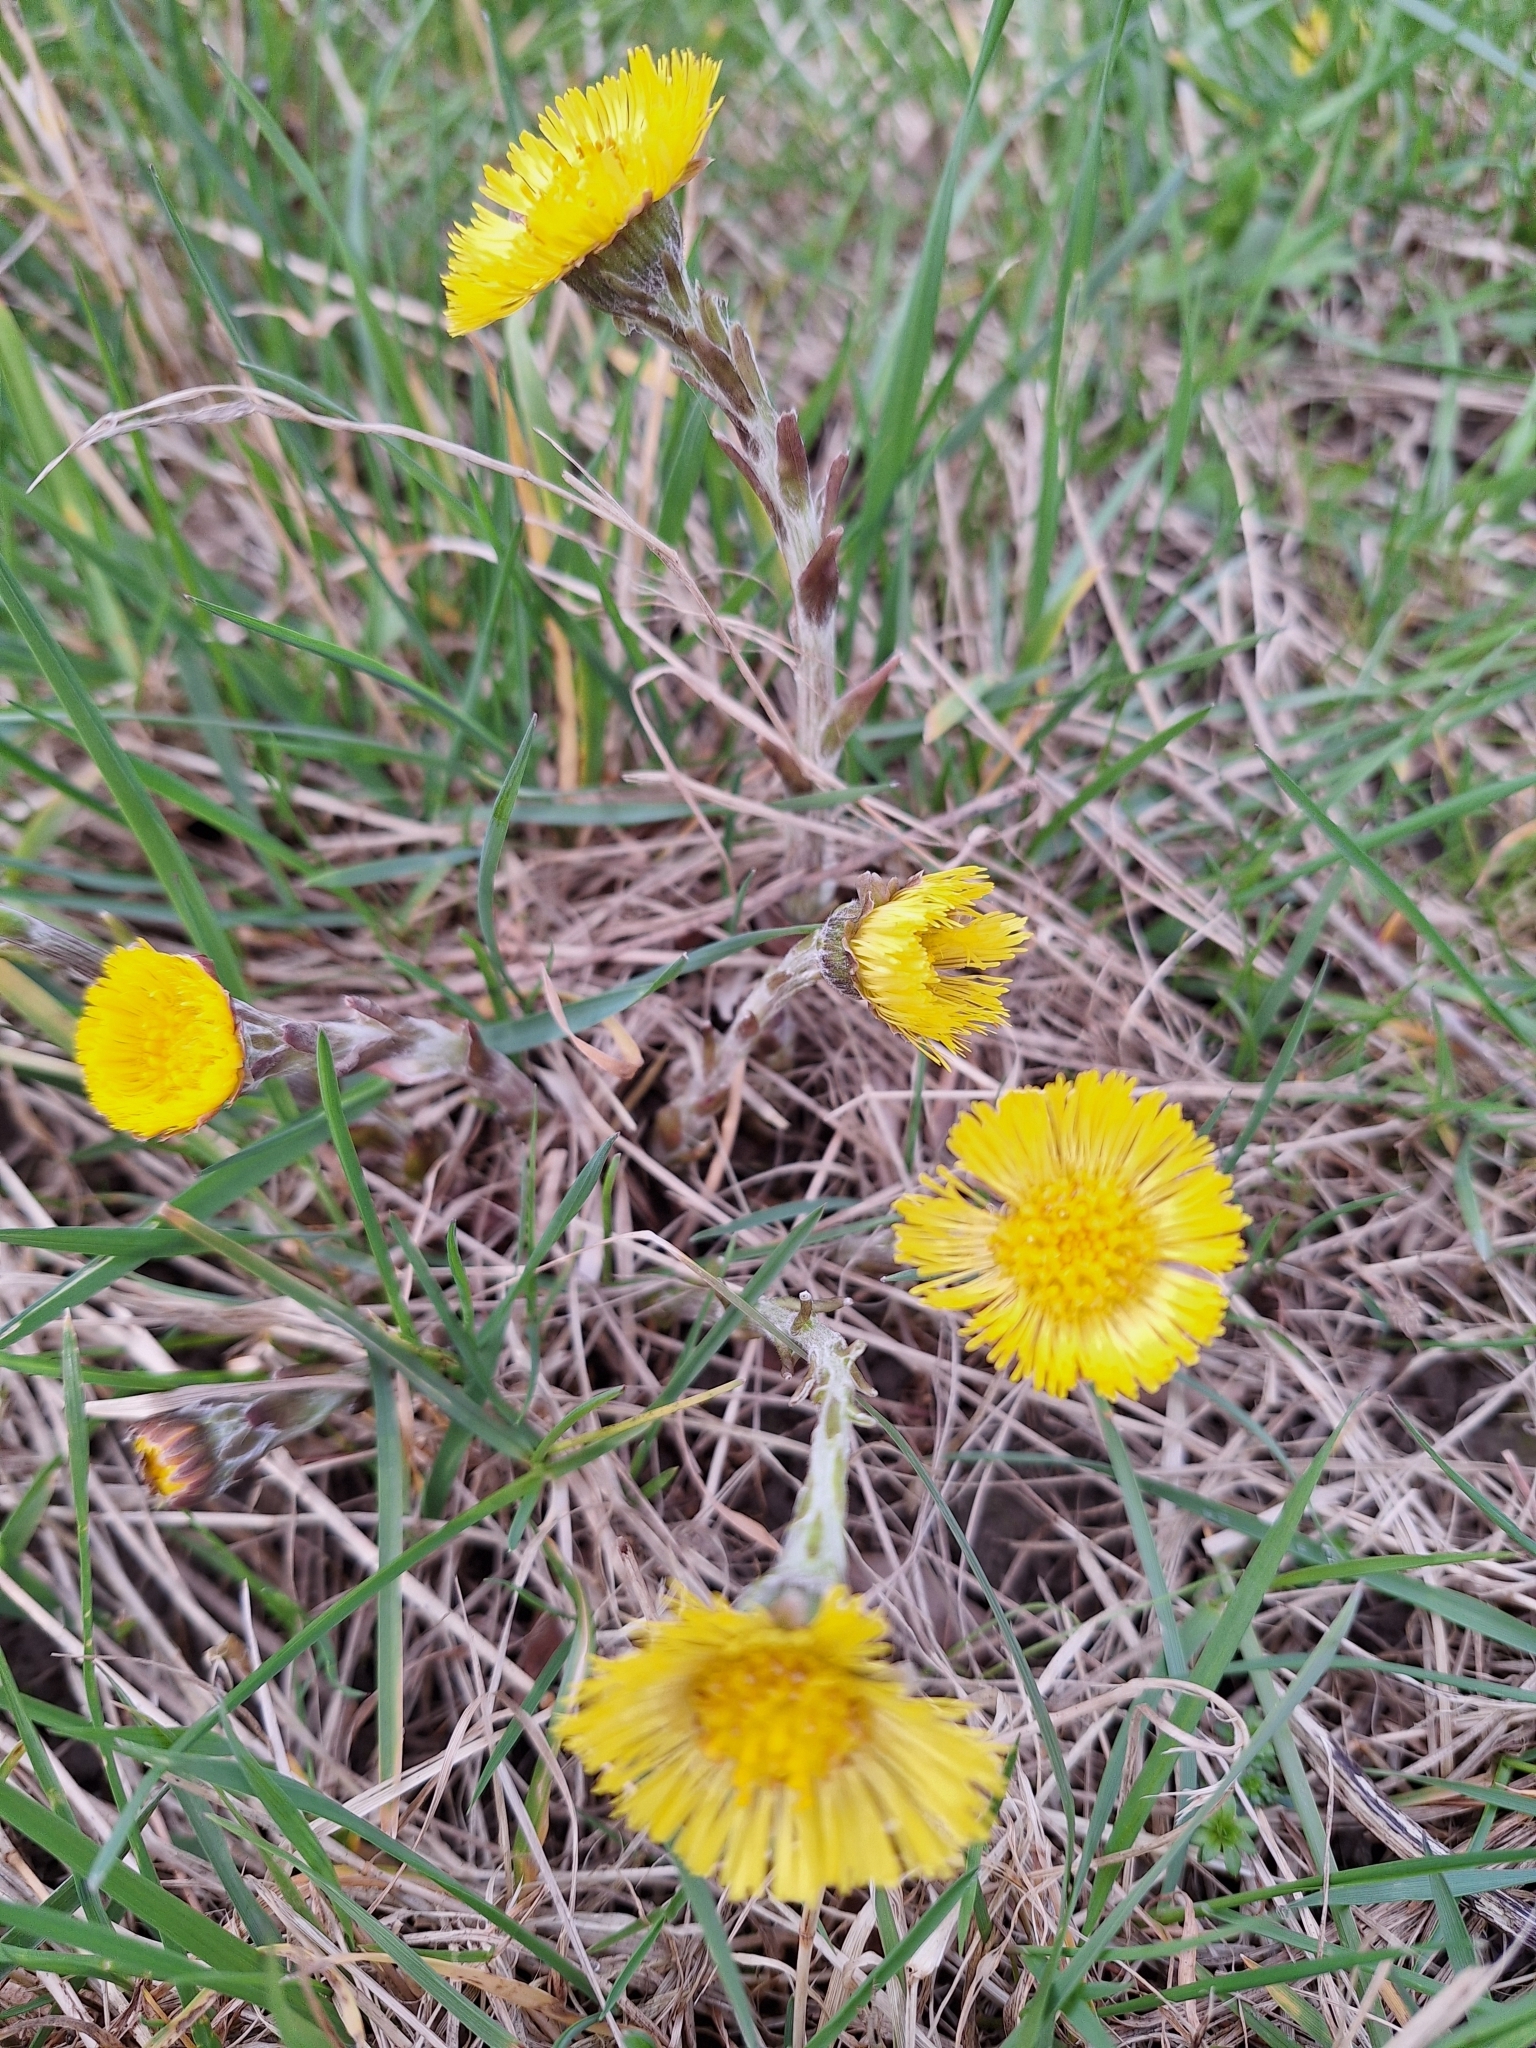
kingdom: Plantae
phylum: Tracheophyta
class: Magnoliopsida
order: Asterales
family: Asteraceae
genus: Tussilago
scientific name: Tussilago farfara
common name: Coltsfoot
